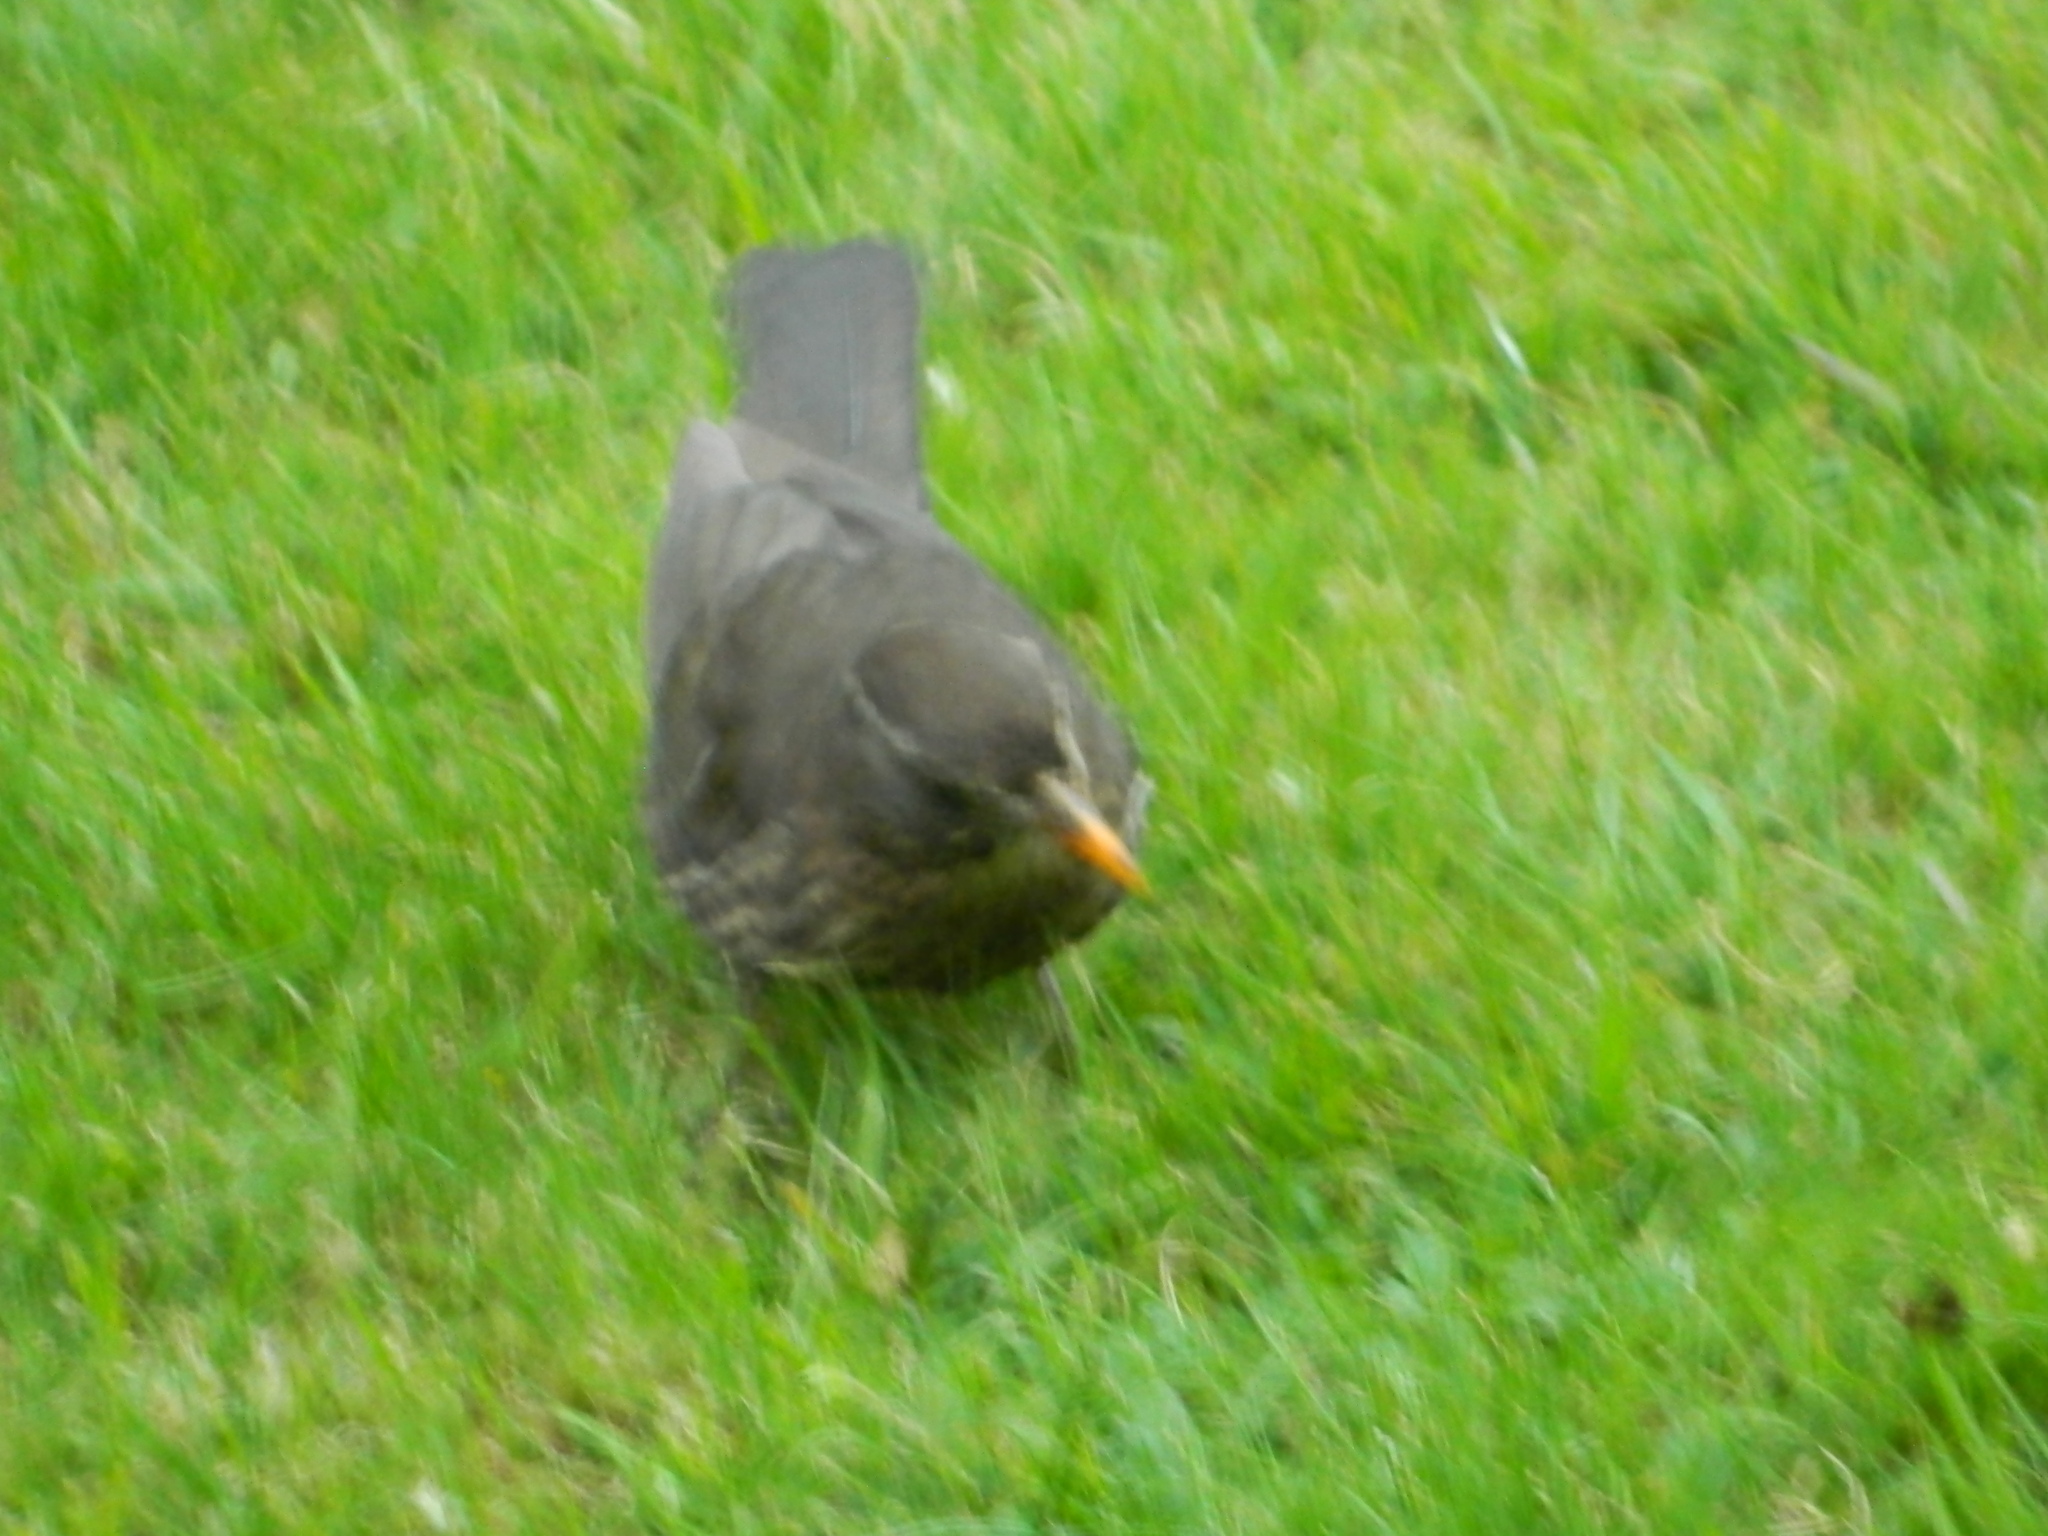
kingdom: Animalia
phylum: Chordata
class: Aves
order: Passeriformes
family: Turdidae
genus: Turdus
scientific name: Turdus merula
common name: Common blackbird
